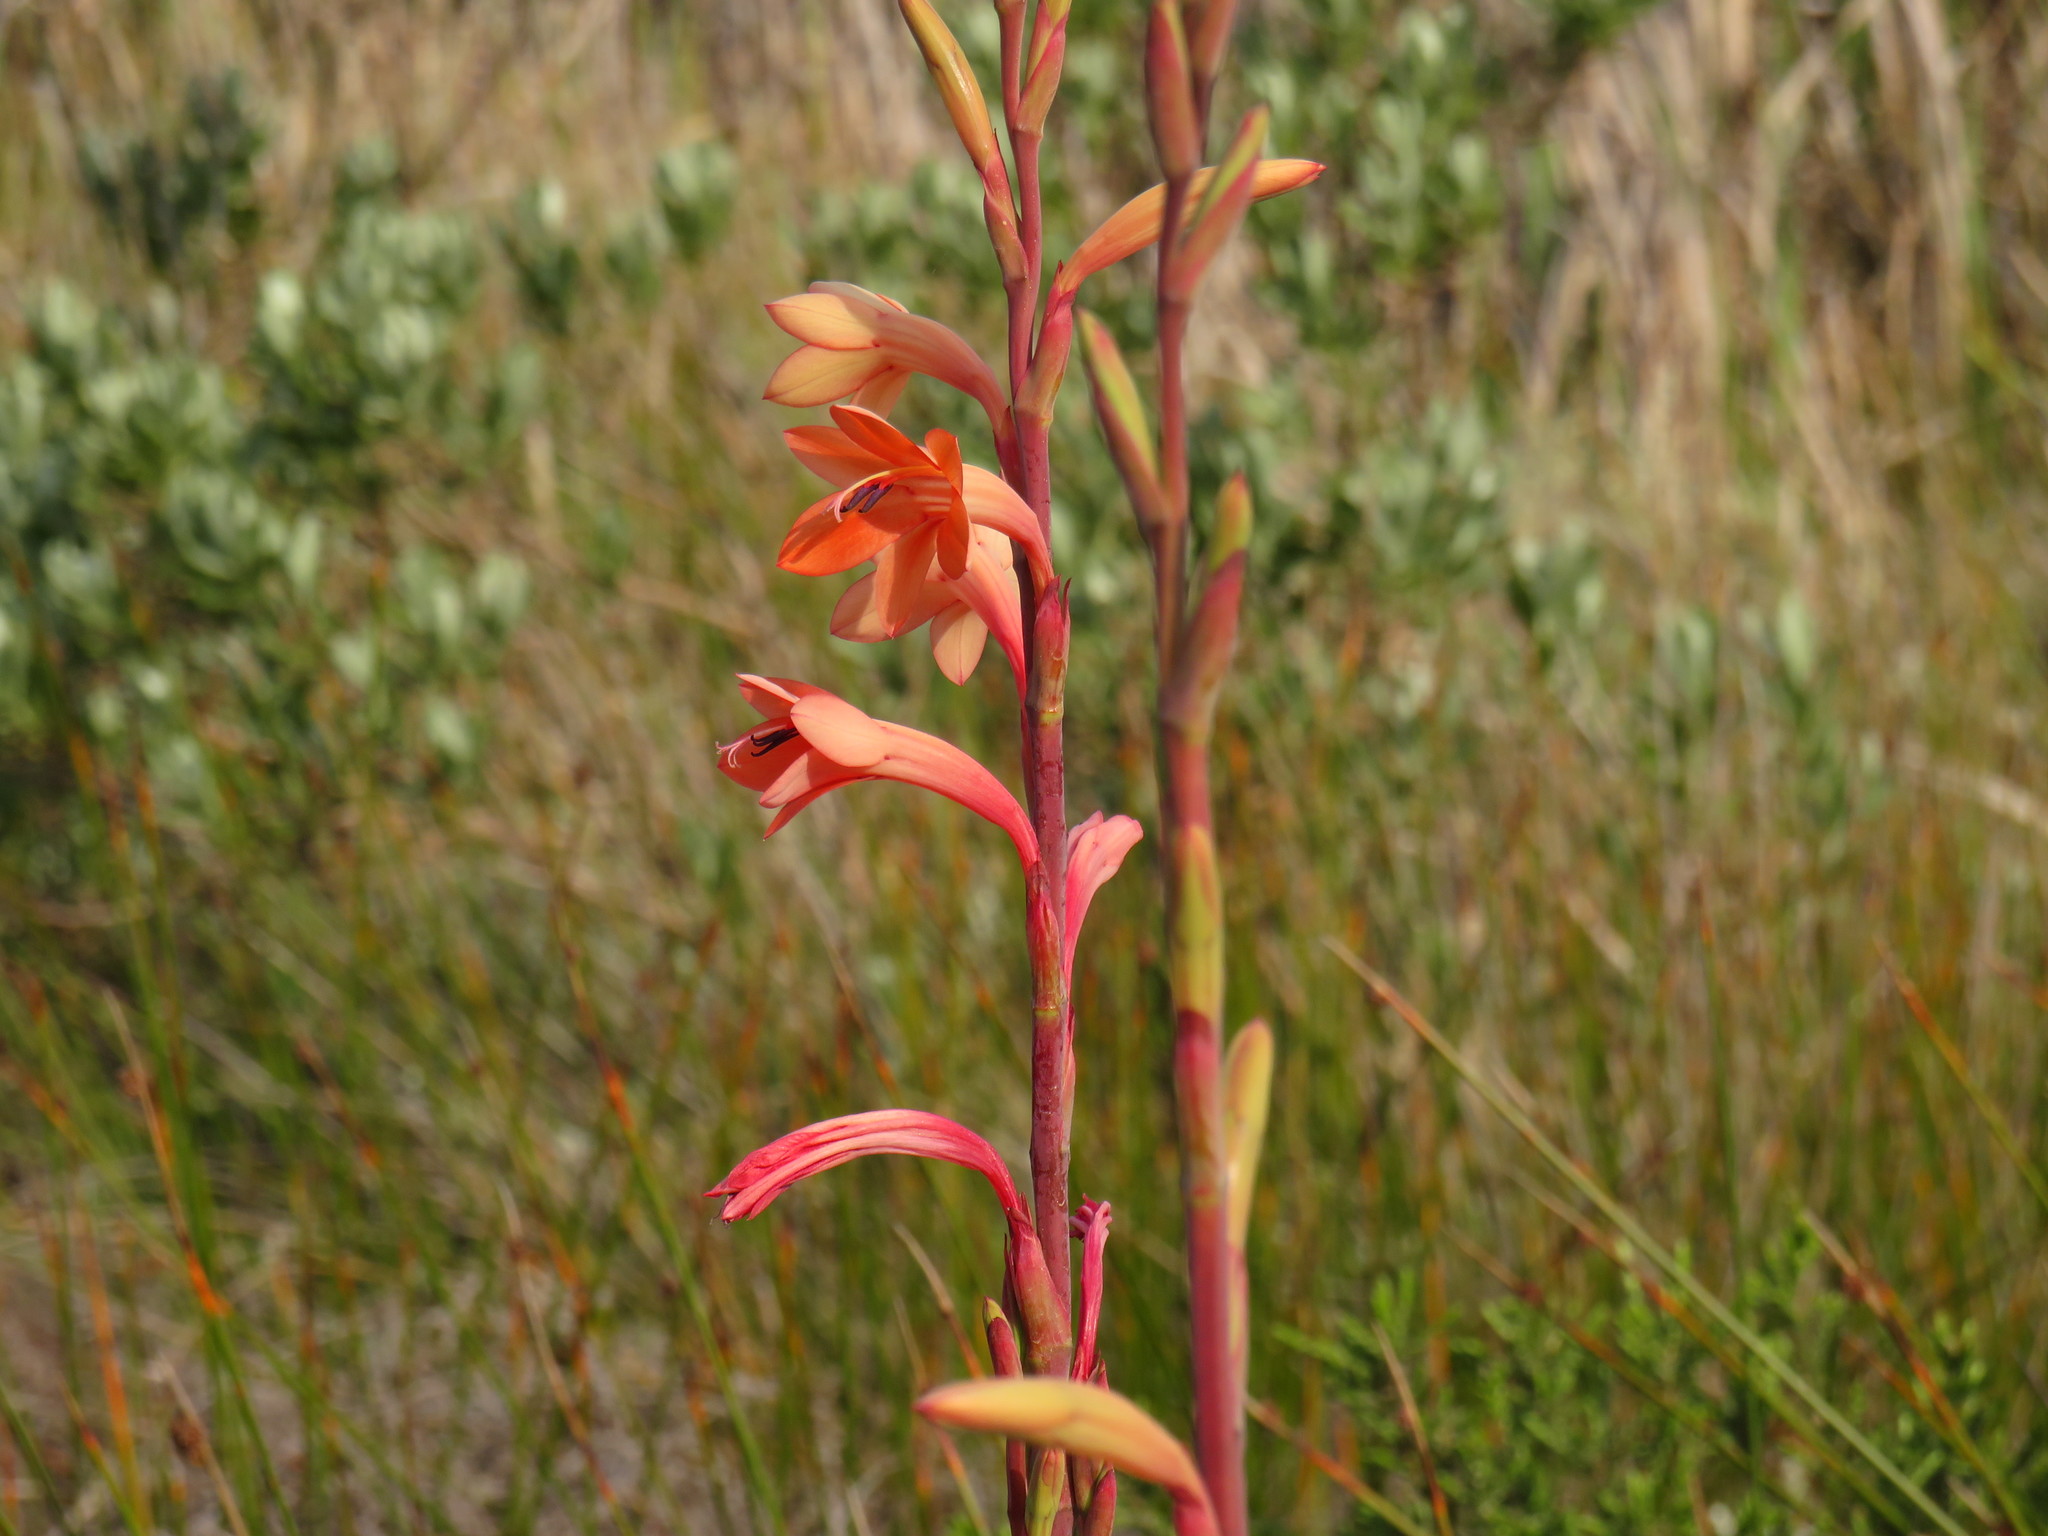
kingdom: Plantae
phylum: Tracheophyta
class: Liliopsida
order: Asparagales
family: Iridaceae
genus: Watsonia
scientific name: Watsonia meriana
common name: Bulbil bugle-lily
